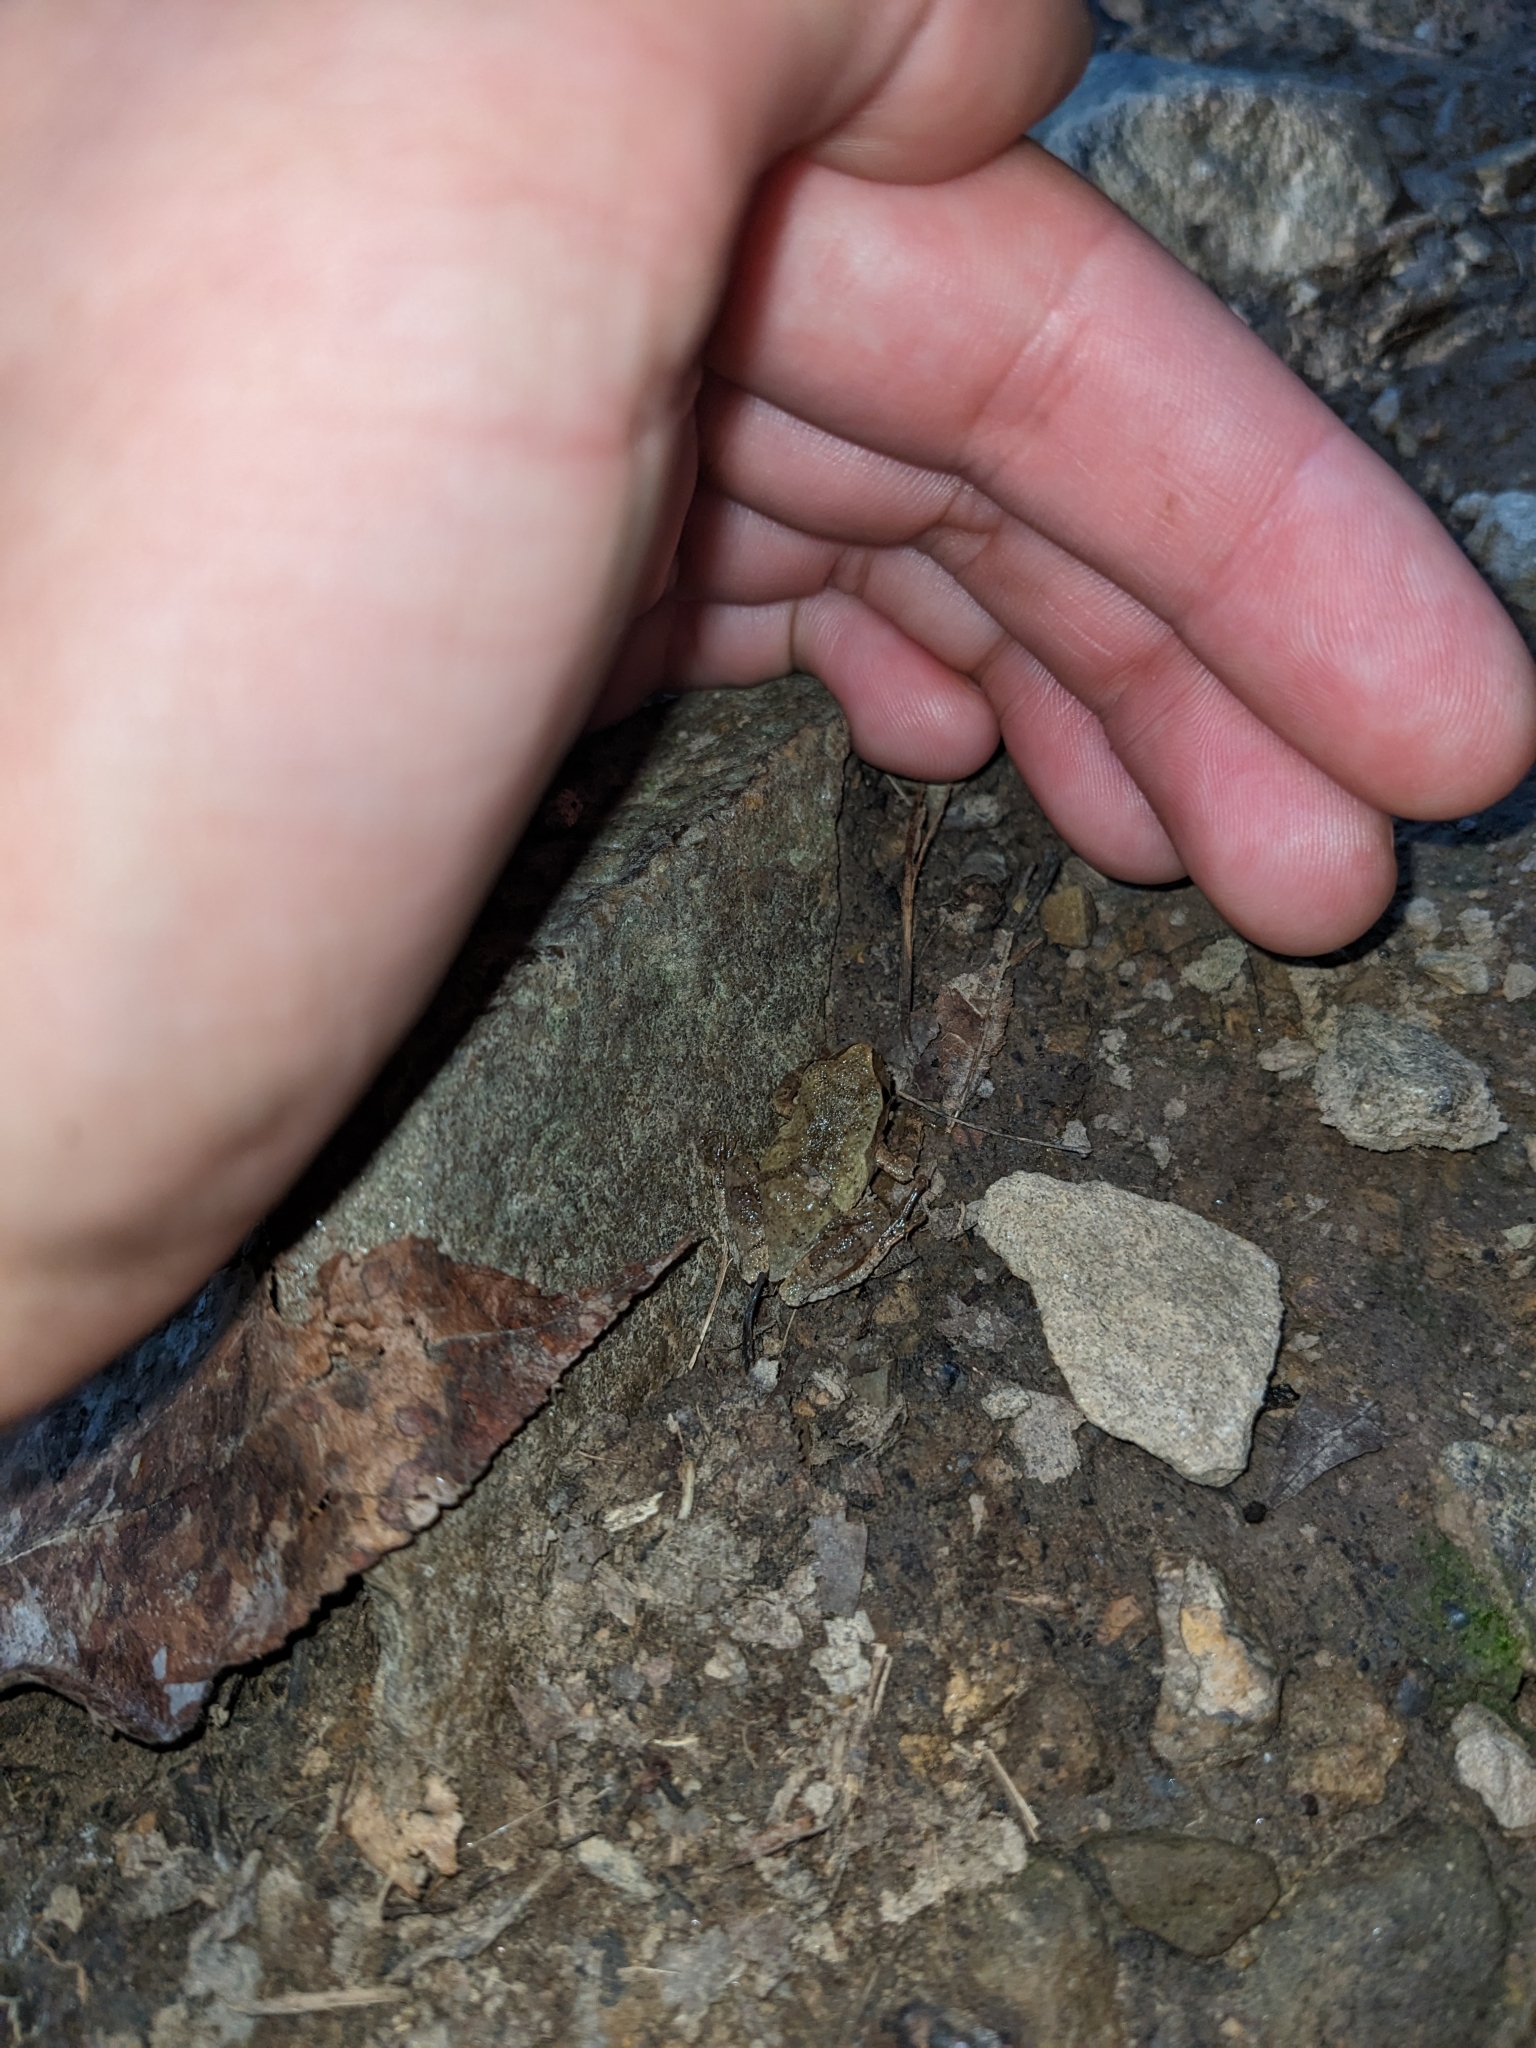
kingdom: Animalia
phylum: Chordata
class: Amphibia
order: Anura
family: Hylidae
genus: Pseudacris
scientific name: Pseudacris crucifer
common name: Spring peeper
